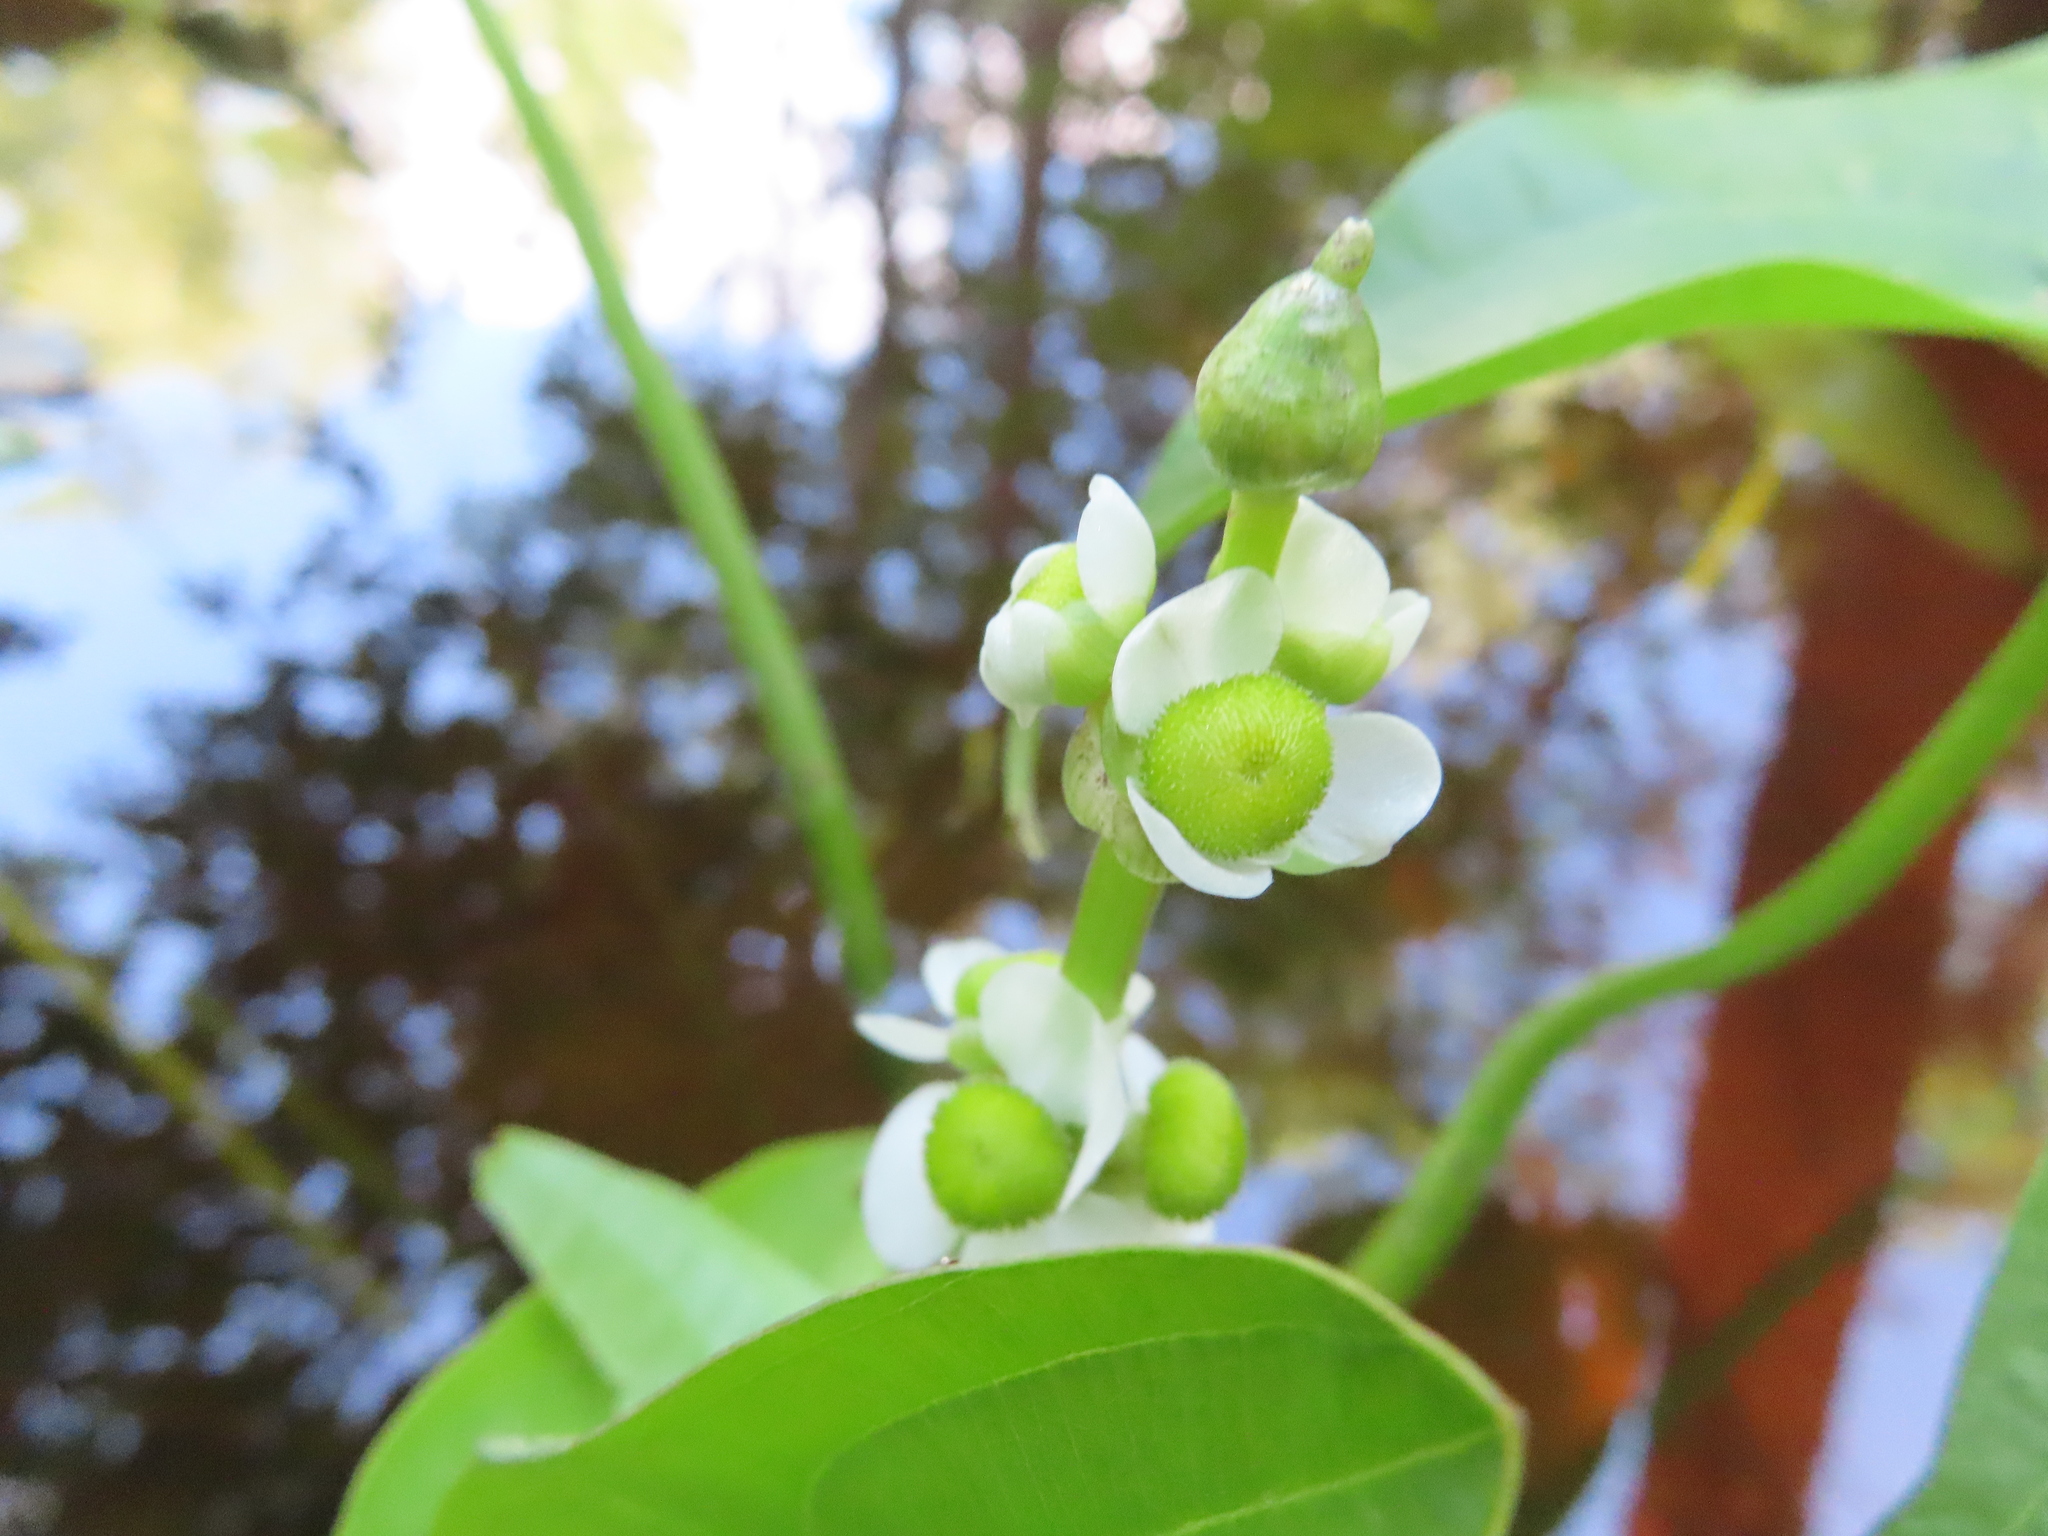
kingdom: Plantae
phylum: Tracheophyta
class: Liliopsida
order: Alismatales
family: Alismataceae
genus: Sagittaria
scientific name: Sagittaria latifolia
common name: Duck-potato
